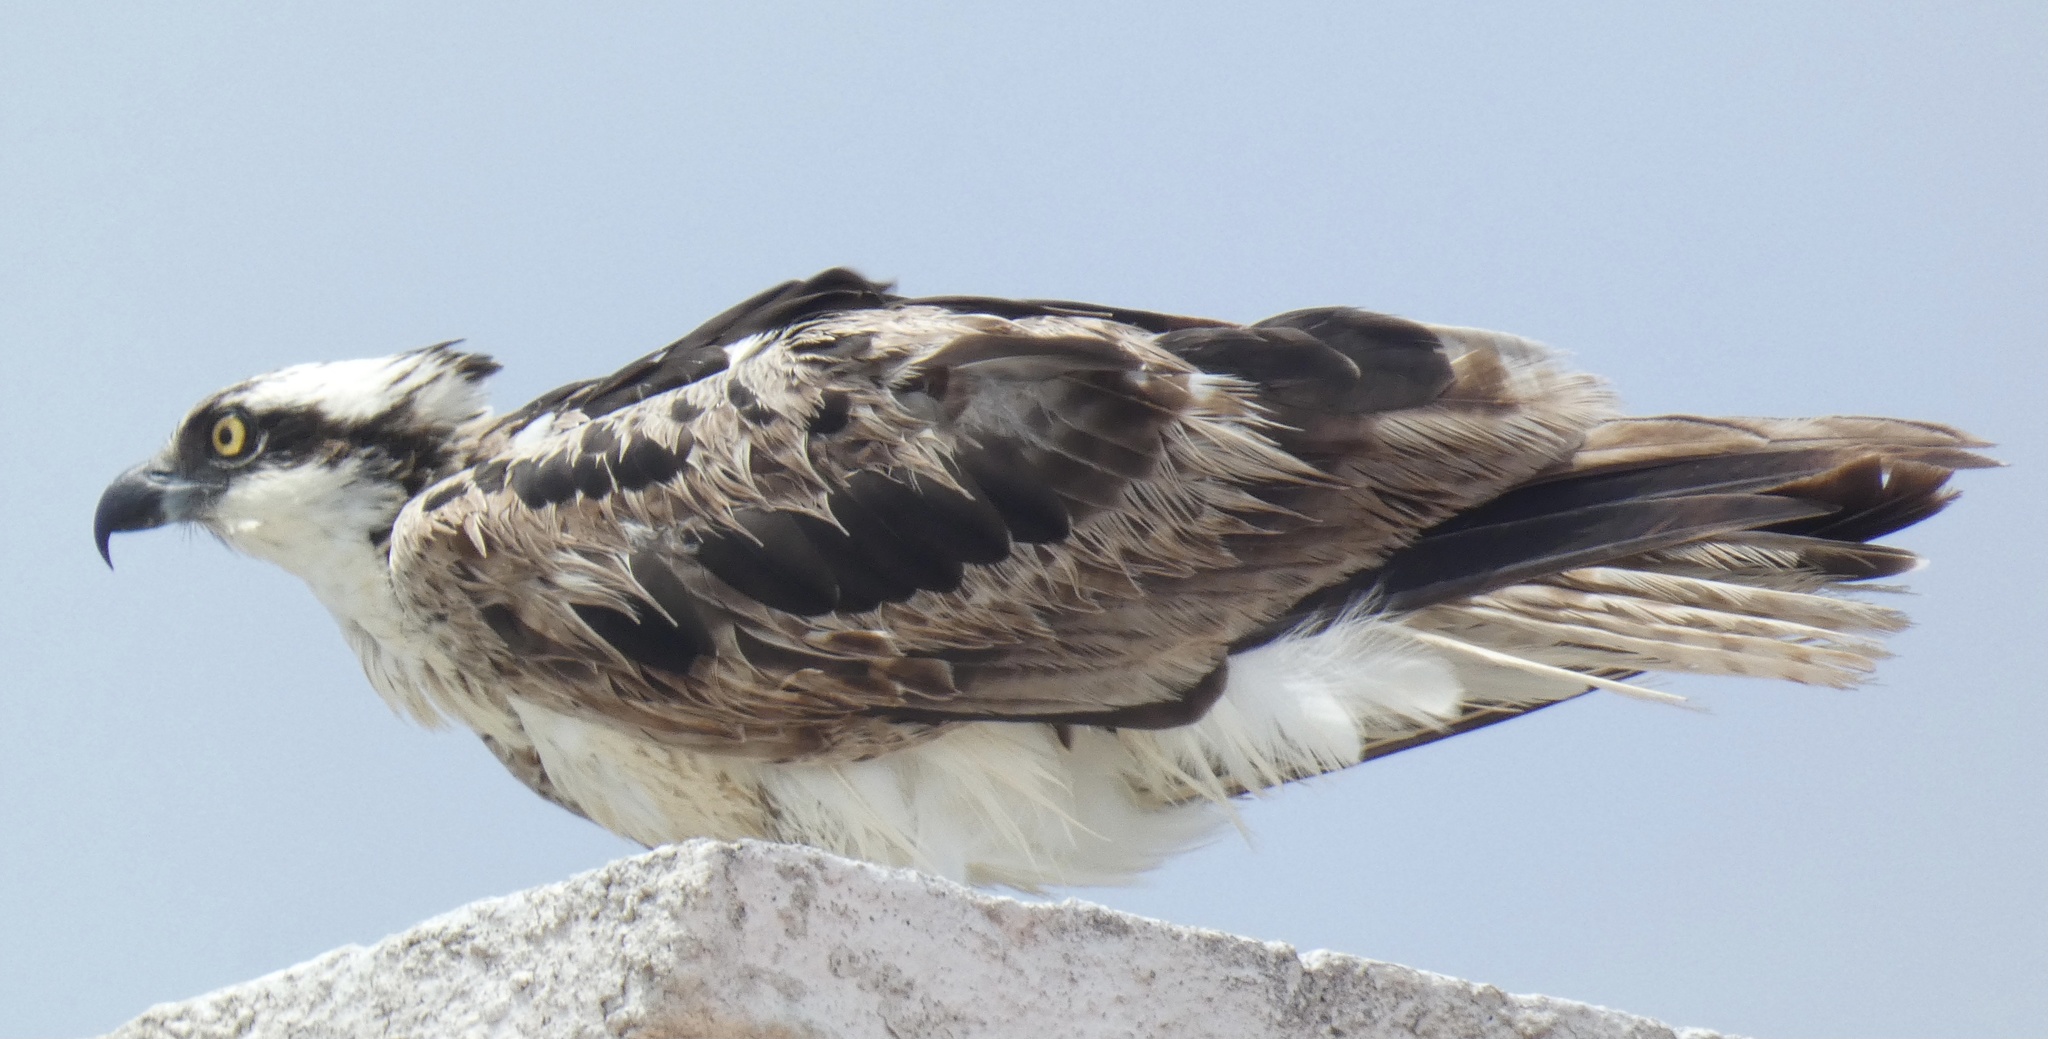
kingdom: Animalia
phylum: Chordata
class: Aves
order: Accipitriformes
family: Pandionidae
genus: Pandion
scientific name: Pandion haliaetus
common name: Osprey
